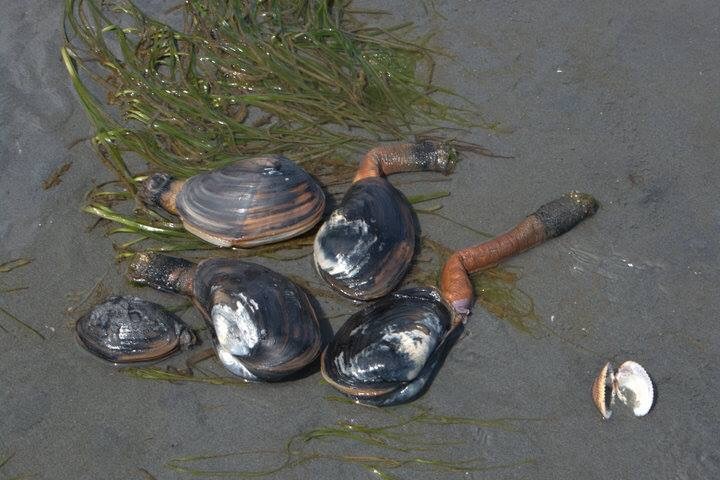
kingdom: Animalia
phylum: Mollusca
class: Bivalvia
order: Venerida
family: Mactridae
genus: Tresus
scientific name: Tresus nuttallii
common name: Pacific gaper clam
